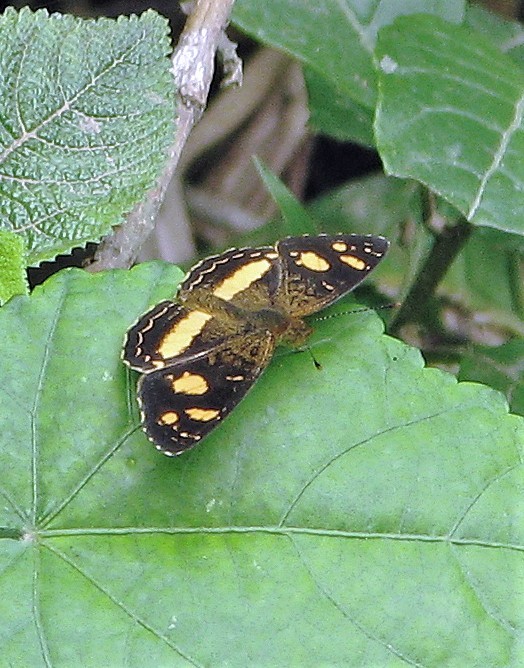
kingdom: Animalia
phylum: Arthropoda
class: Insecta
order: Lepidoptera
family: Nymphalidae
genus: Telenassa
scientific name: Telenassa berenice
